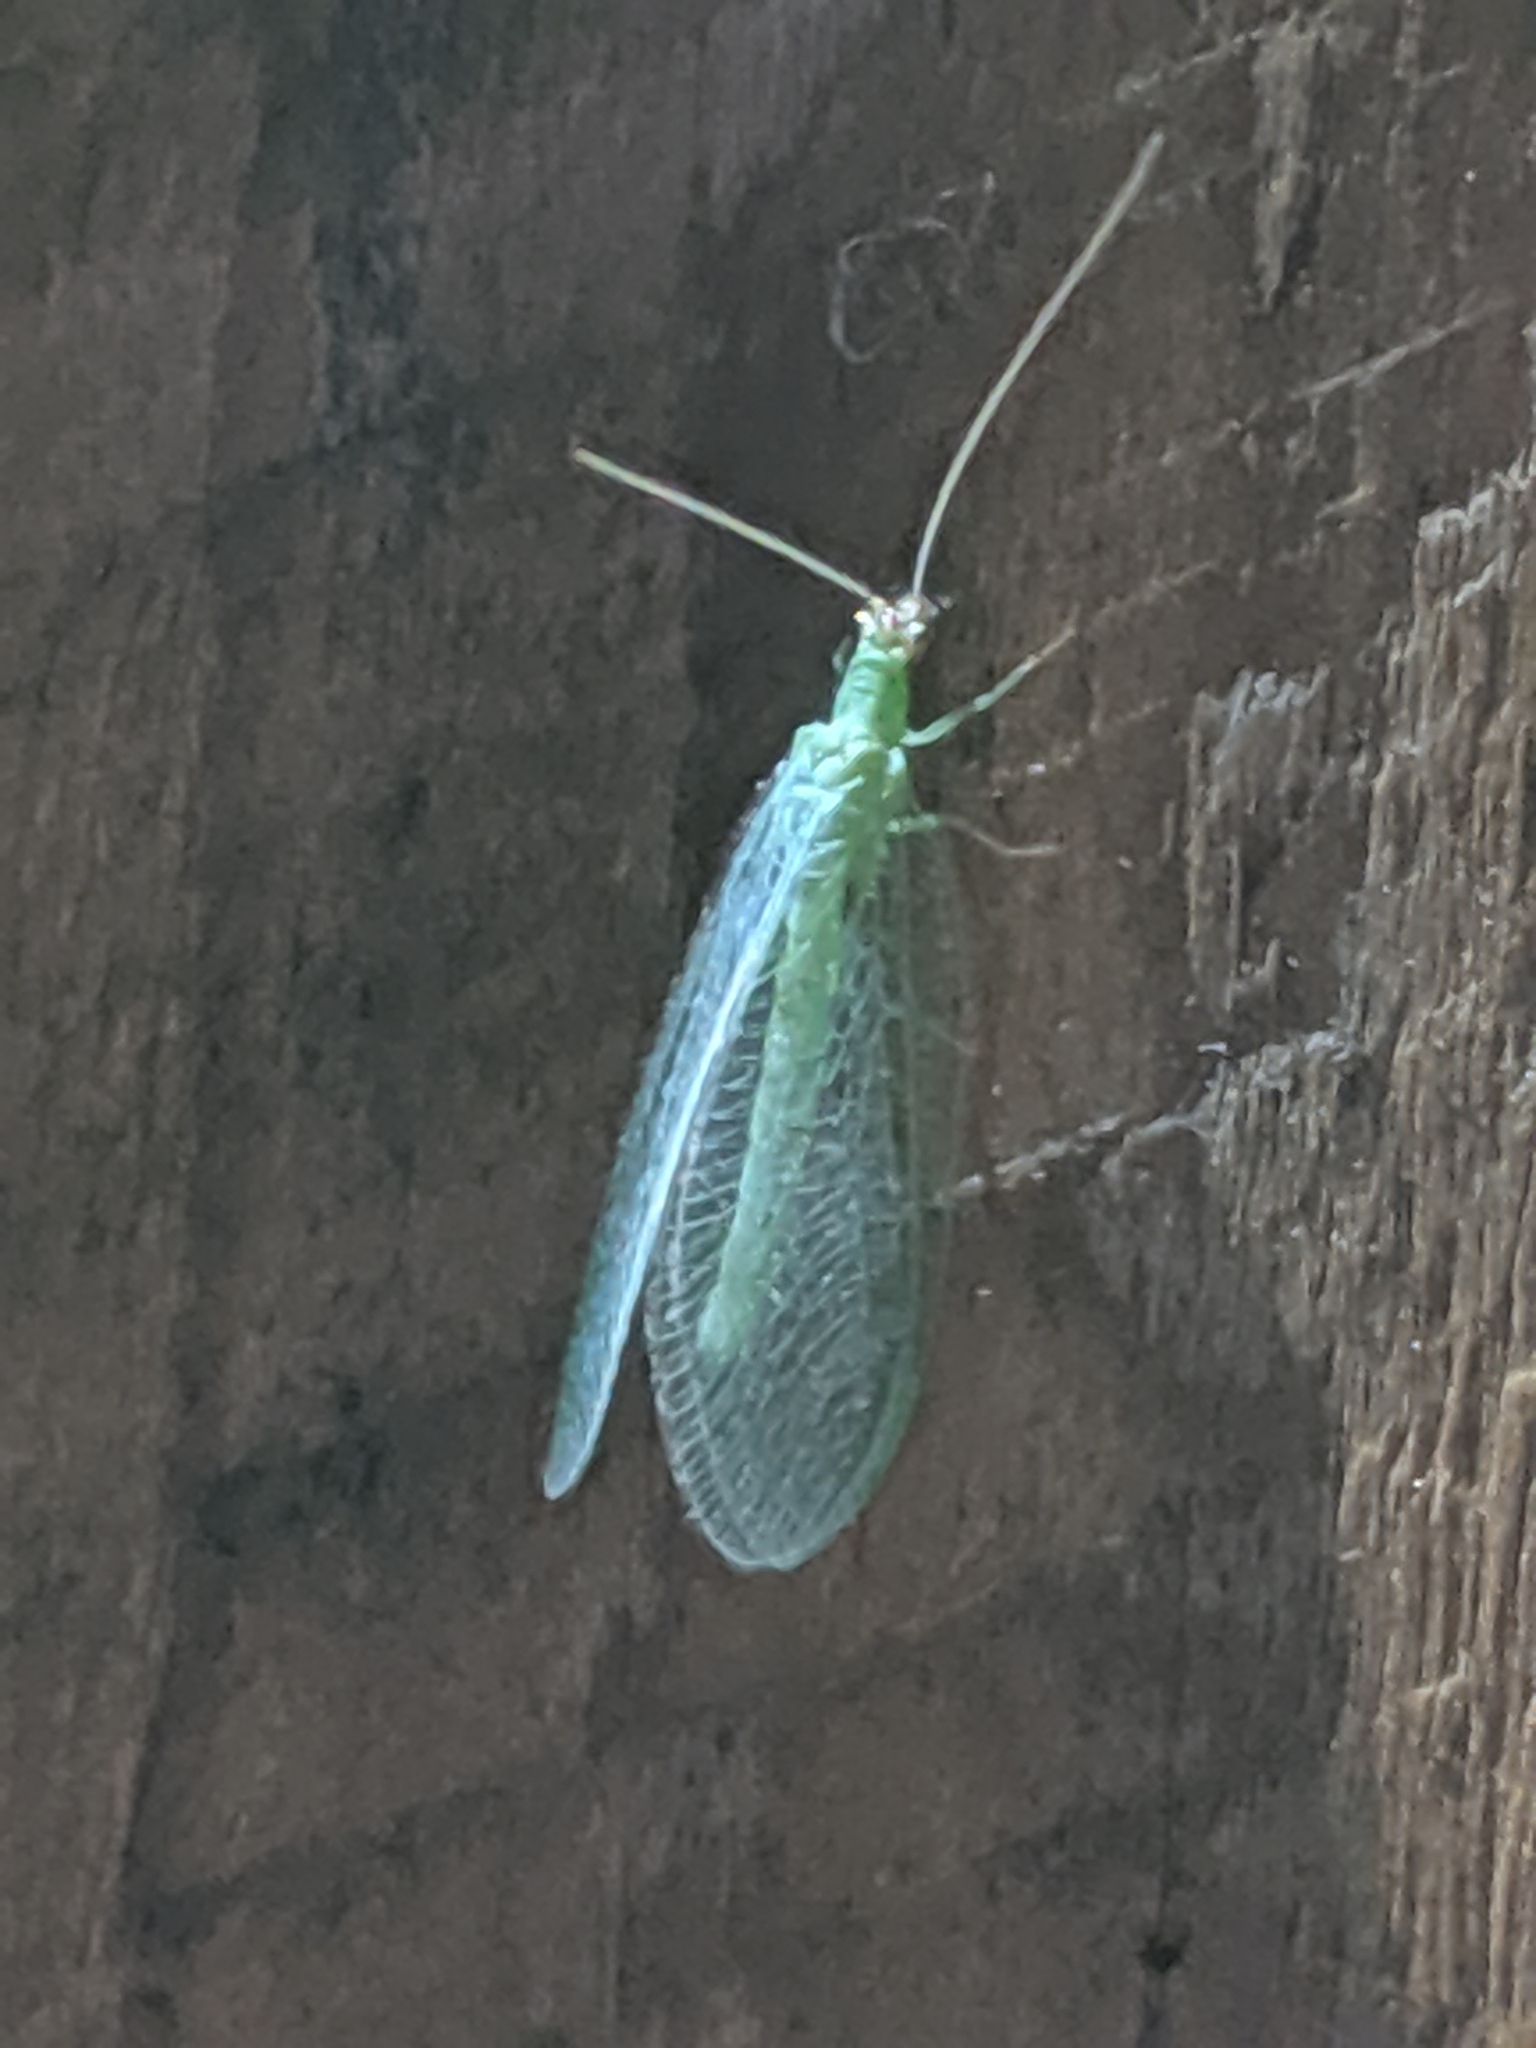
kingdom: Animalia
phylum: Arthropoda
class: Insecta
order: Neuroptera
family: Chrysopidae
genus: Chrysopa
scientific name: Chrysopa oculata
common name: Golden-eyed lacewing
